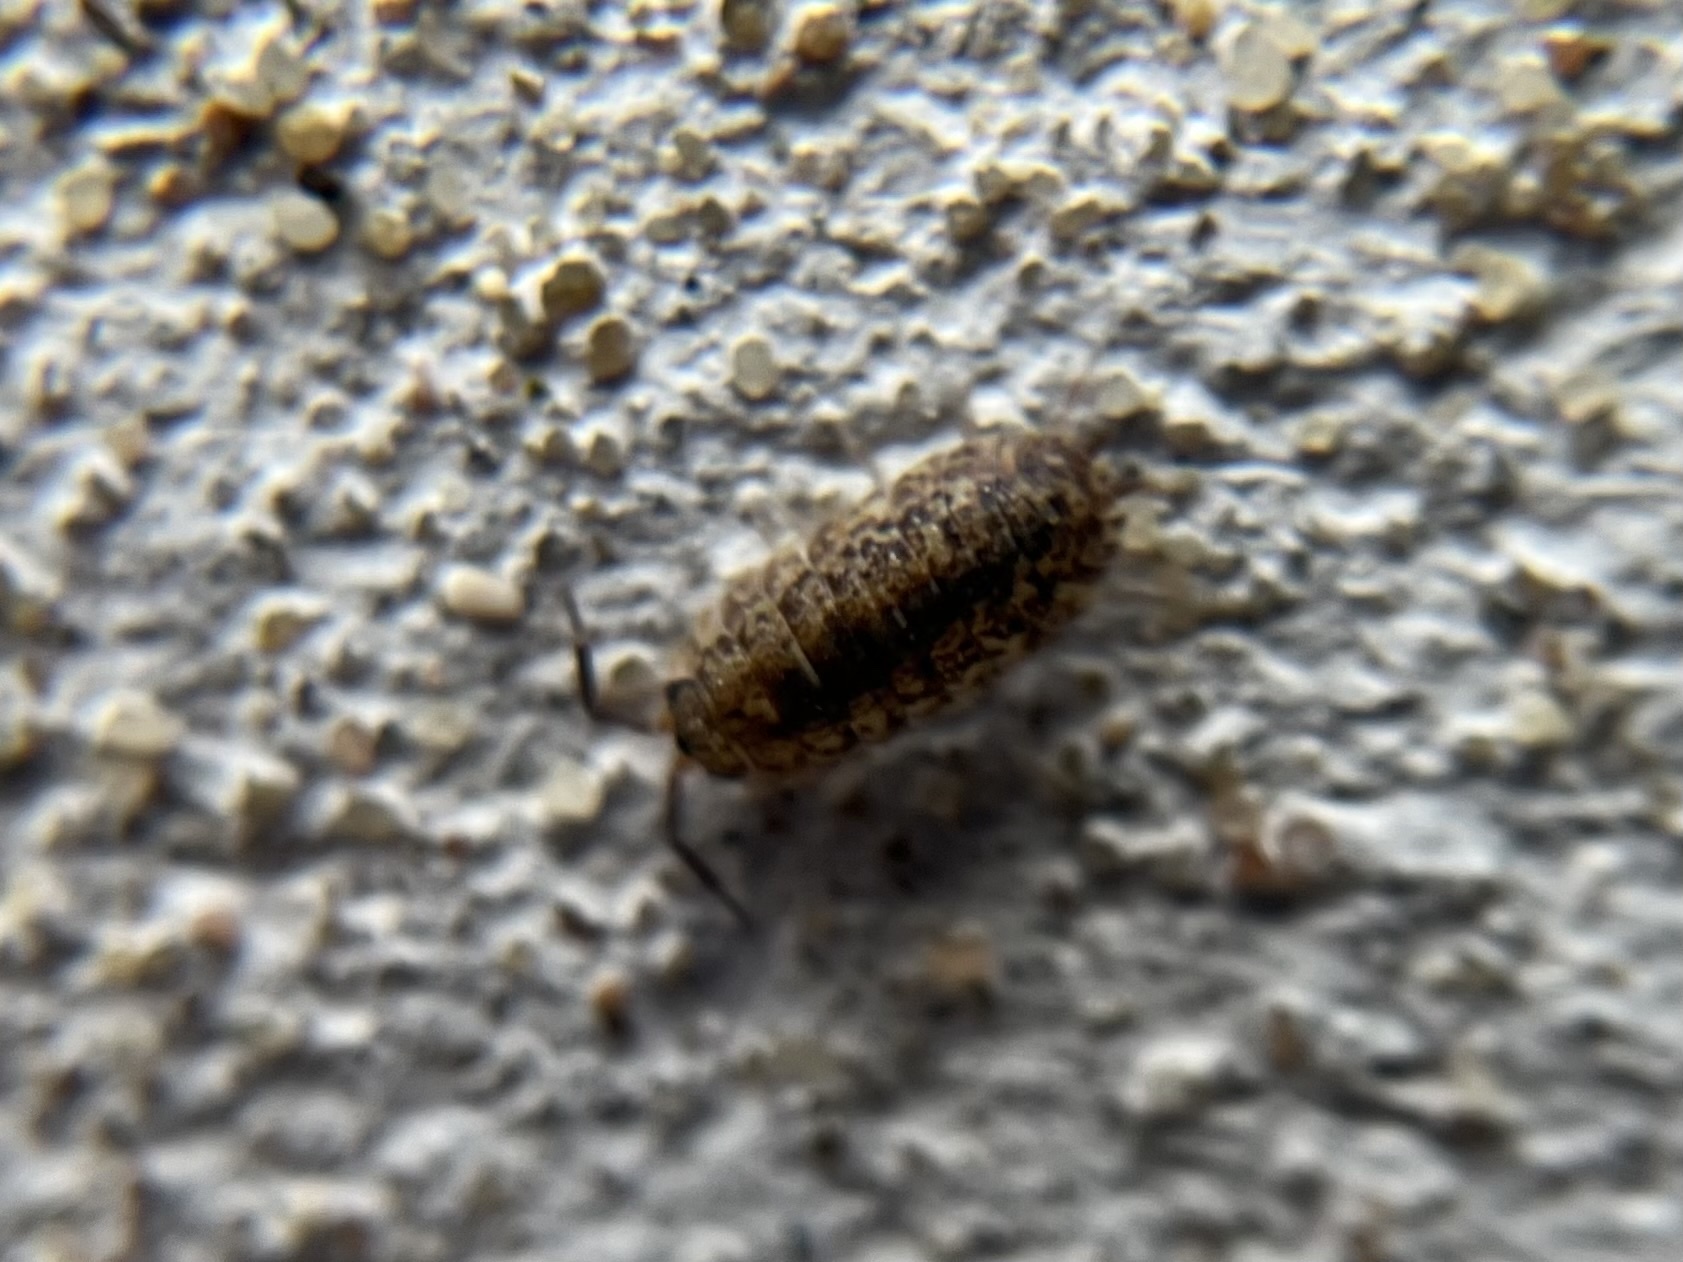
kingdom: Animalia
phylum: Arthropoda
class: Malacostraca
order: Isopoda
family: Porcellionidae
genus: Porcellio
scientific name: Porcellio scaber
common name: Common rough woodlouse
